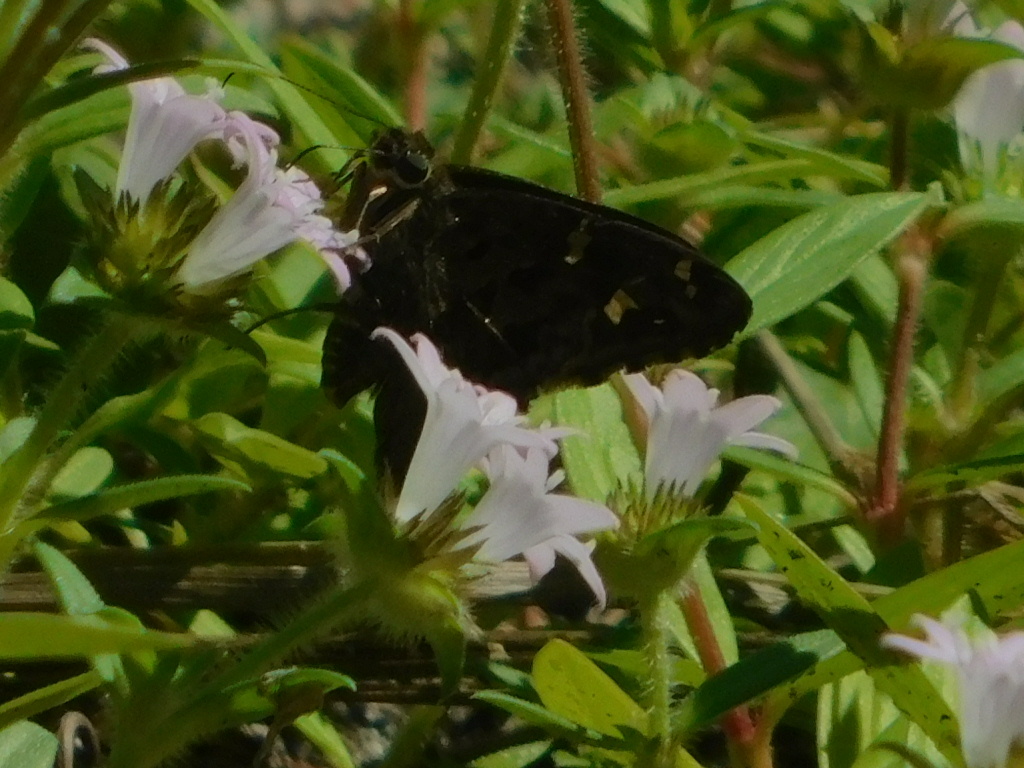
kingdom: Animalia
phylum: Arthropoda
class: Insecta
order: Lepidoptera
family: Hesperiidae
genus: Thorybes
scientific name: Thorybes
